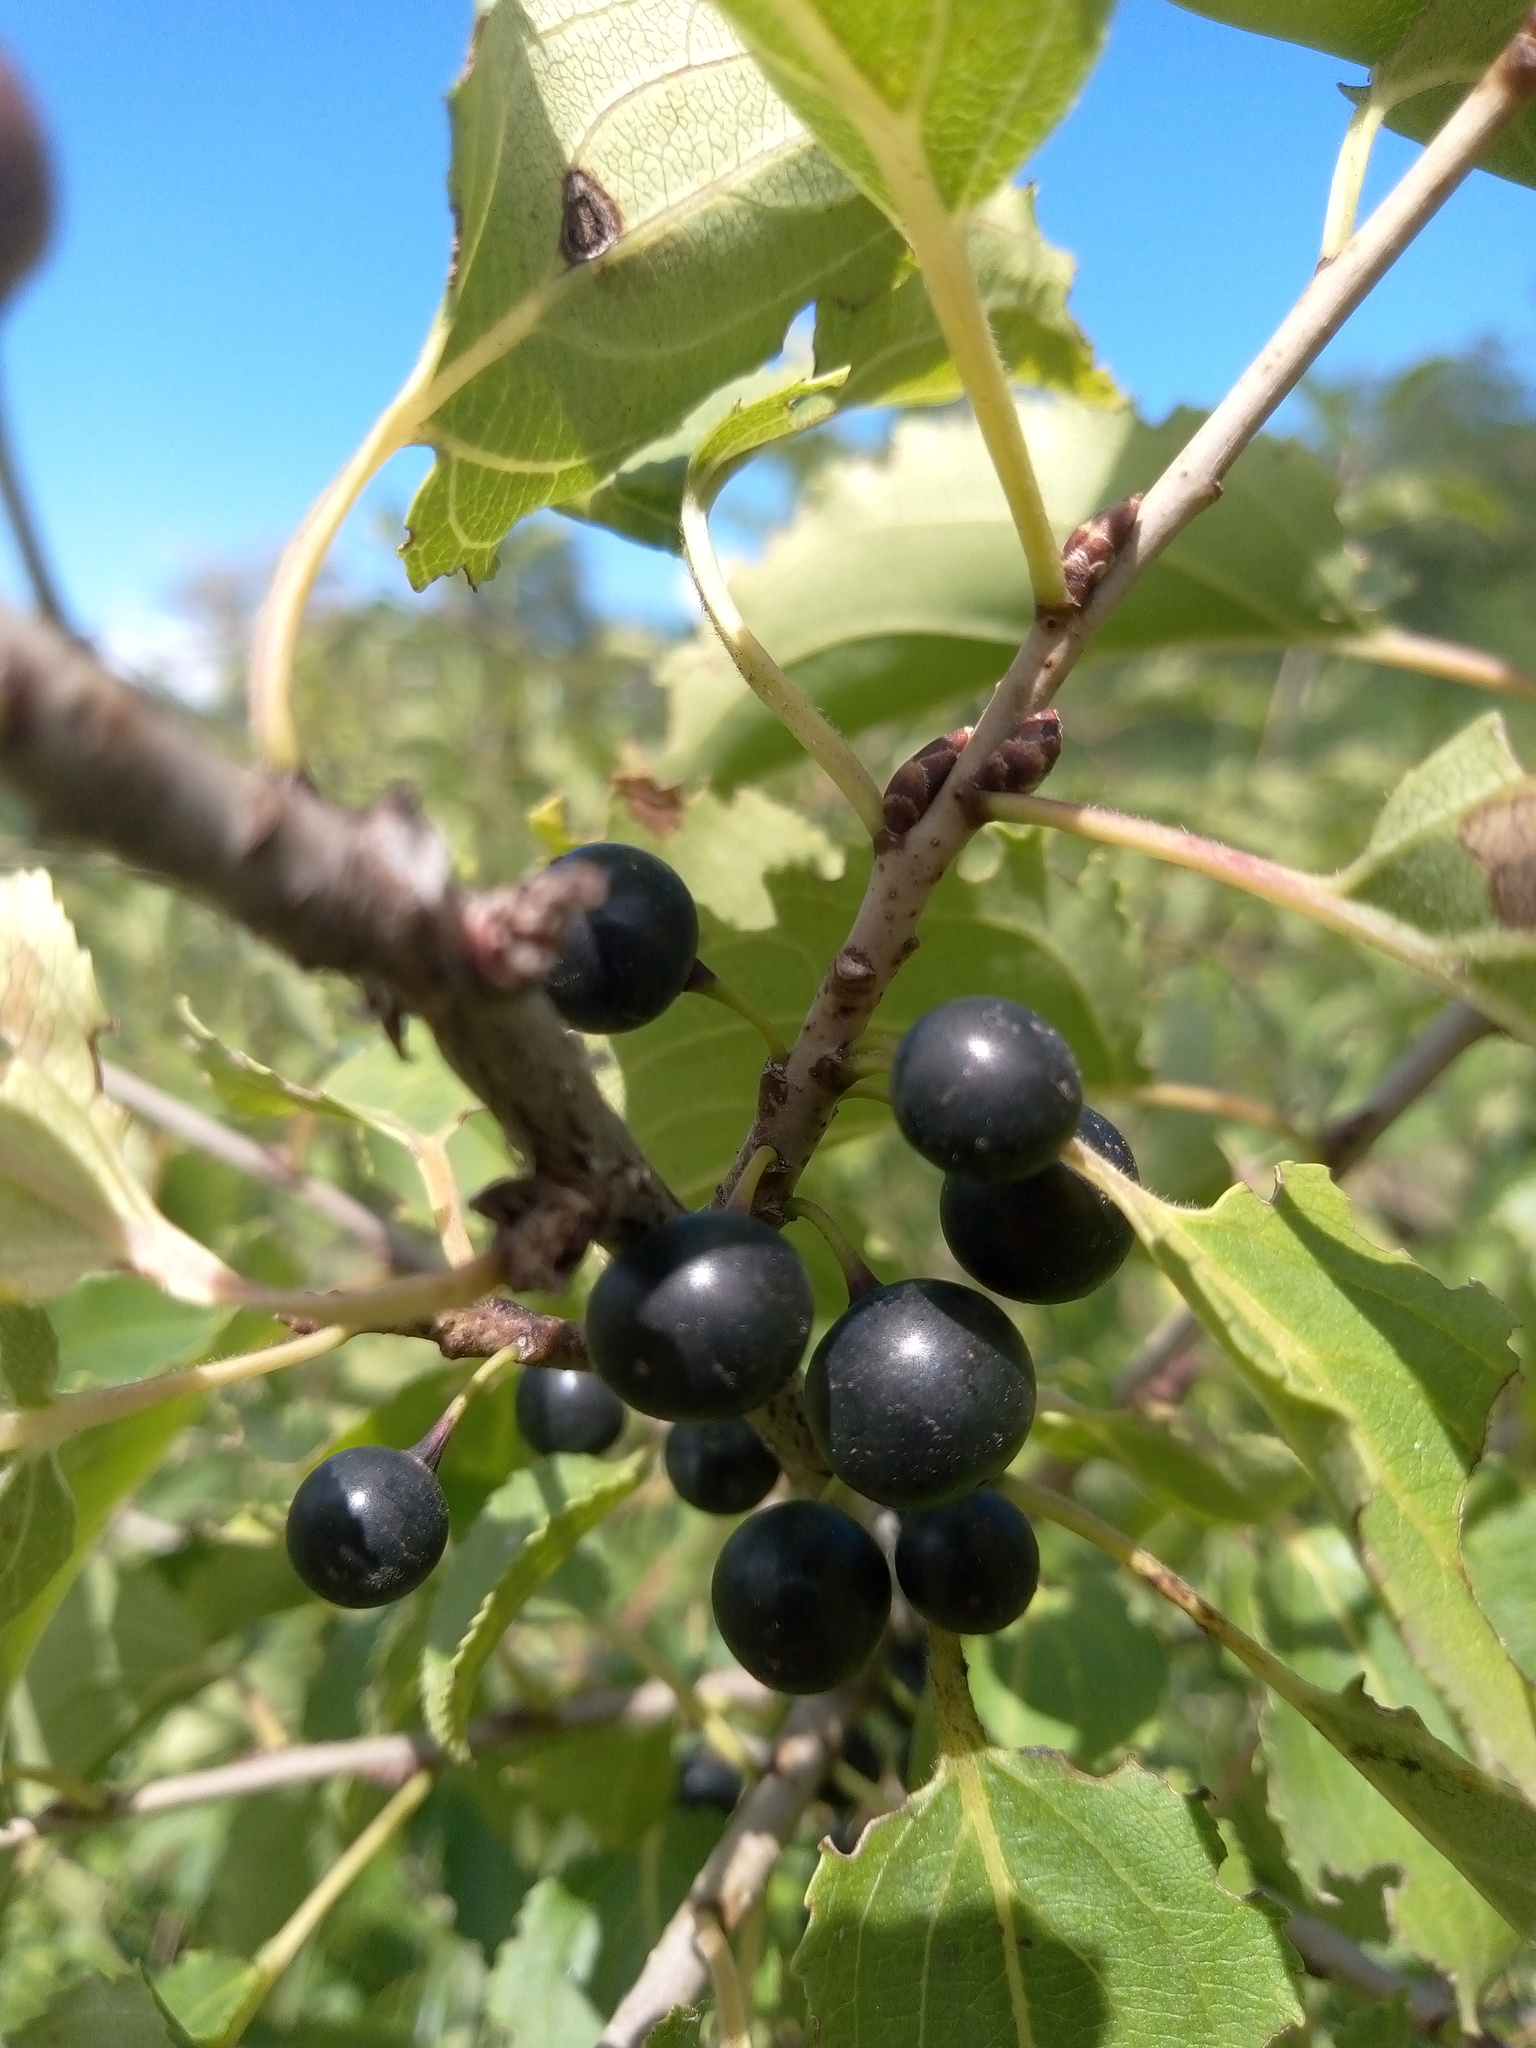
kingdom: Plantae
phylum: Tracheophyta
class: Magnoliopsida
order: Rosales
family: Rhamnaceae
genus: Rhamnus
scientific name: Rhamnus cathartica
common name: Common buckthorn
